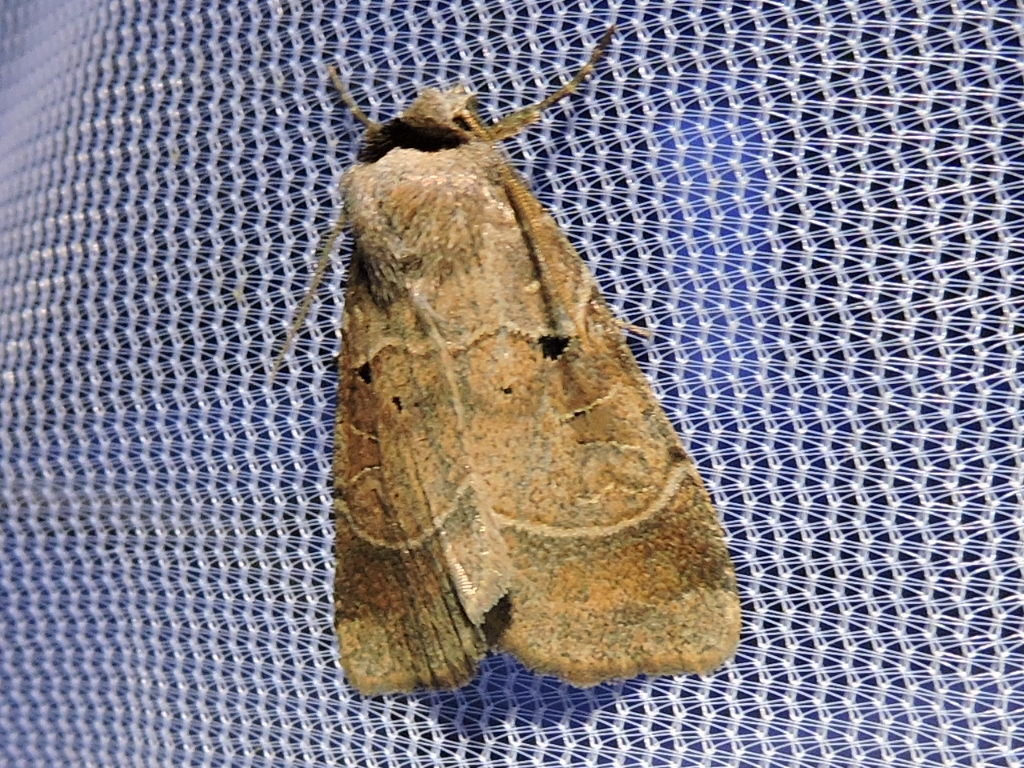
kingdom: Animalia
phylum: Arthropoda
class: Insecta
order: Lepidoptera
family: Noctuidae
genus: Agnorisma
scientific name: Agnorisma badinodis
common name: Pale-banded dart
